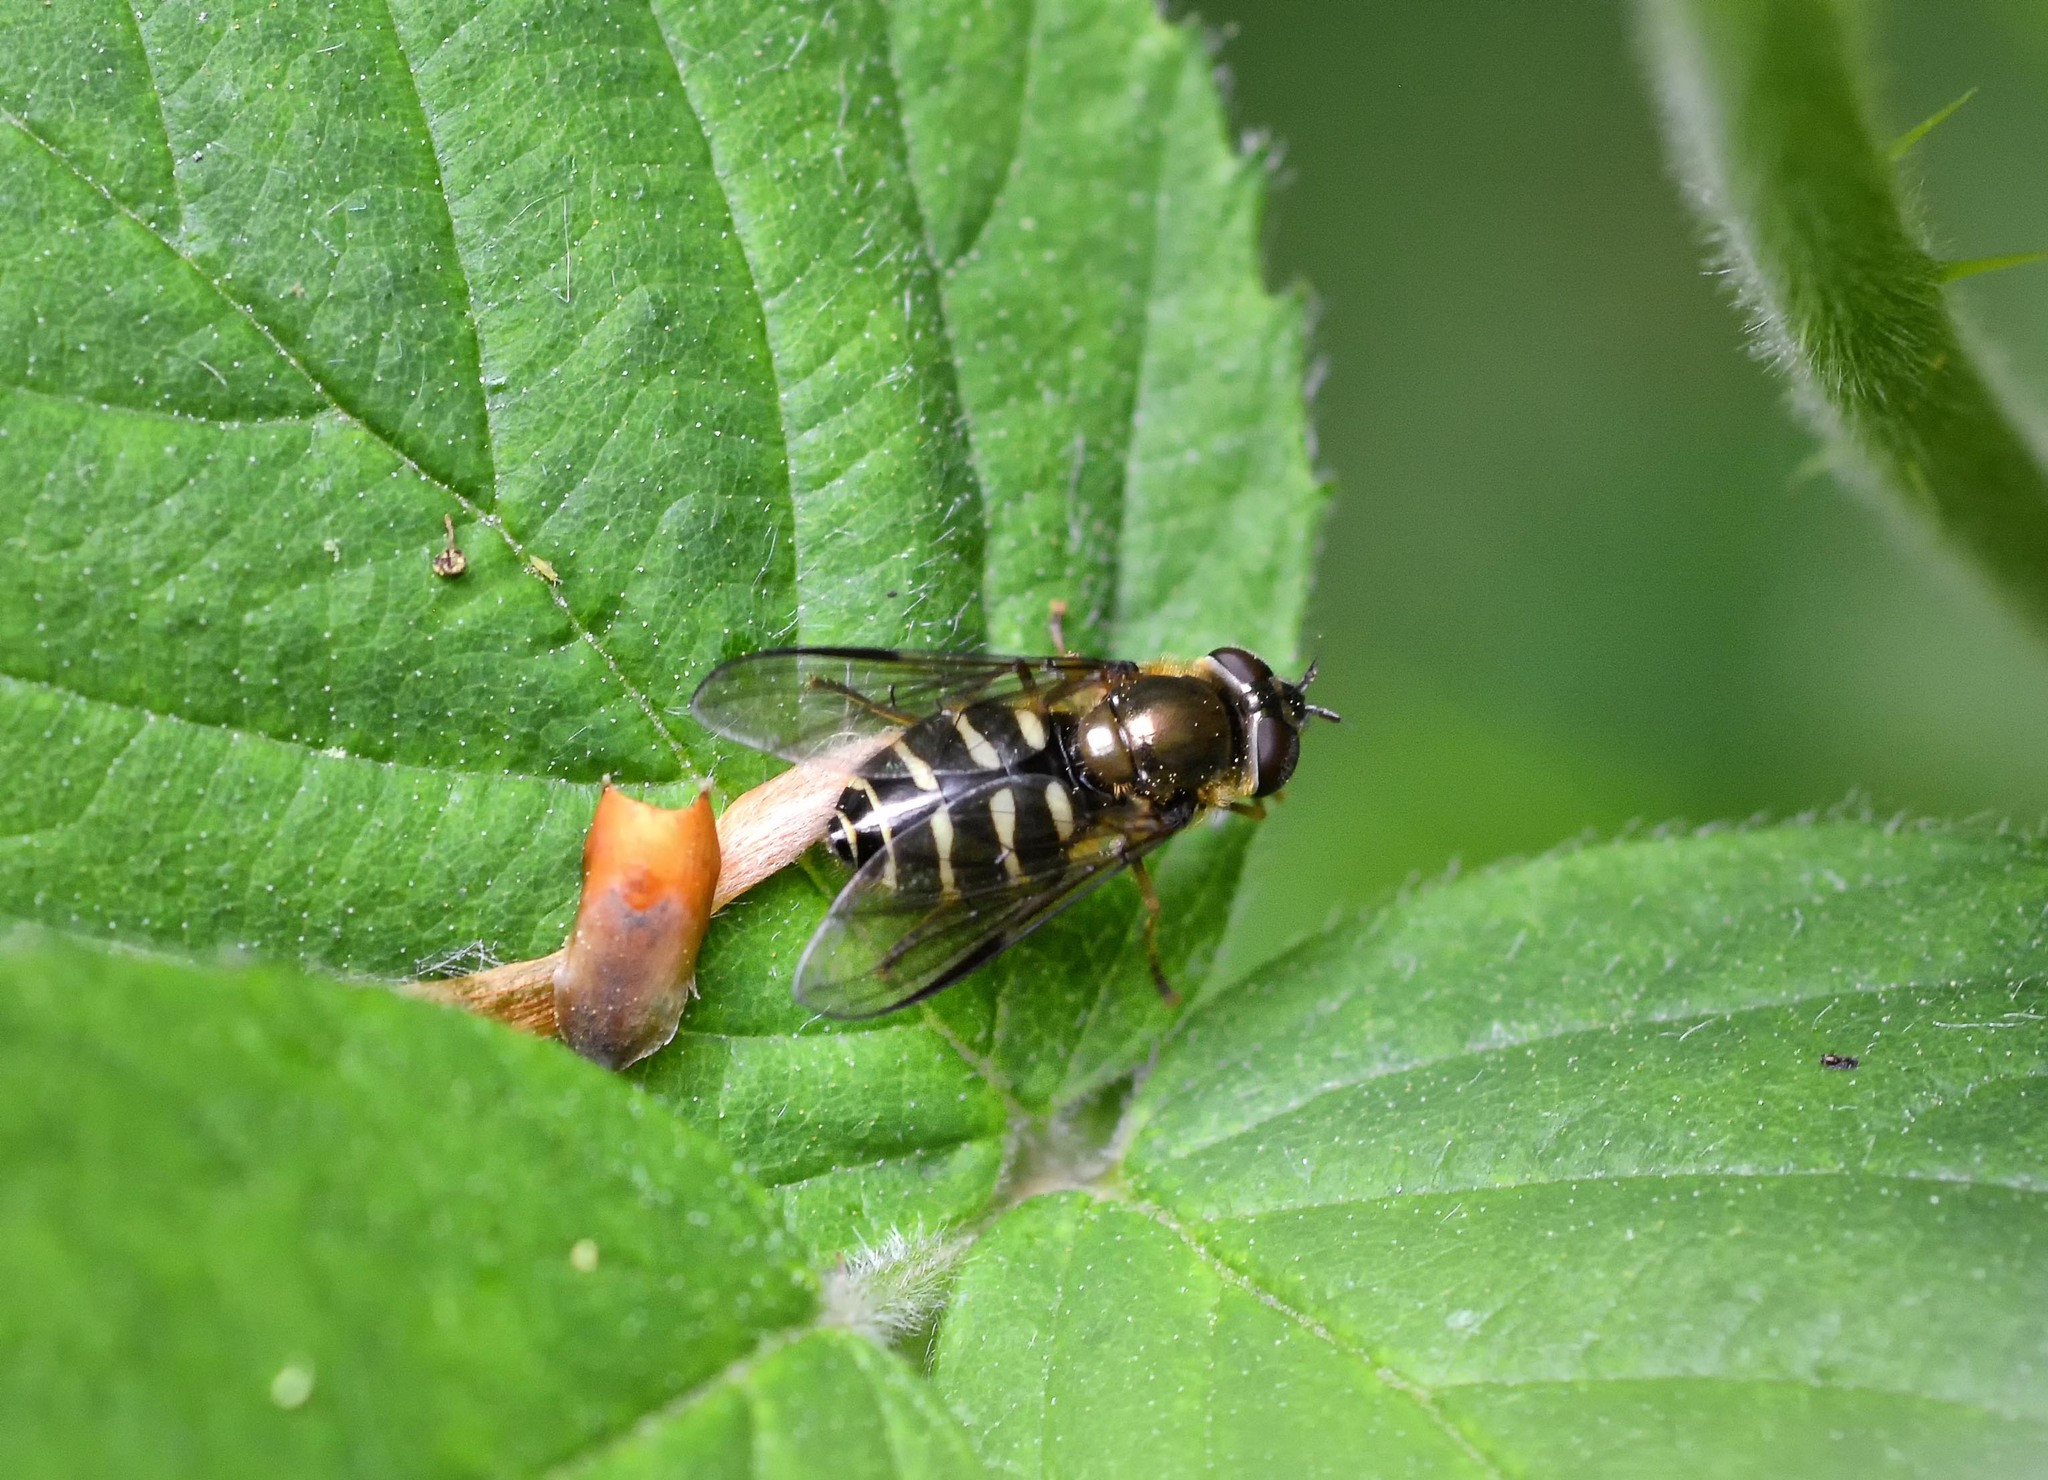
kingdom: Animalia
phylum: Arthropoda
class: Insecta
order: Diptera
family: Syrphidae
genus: Dasysyrphus
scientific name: Dasysyrphus
